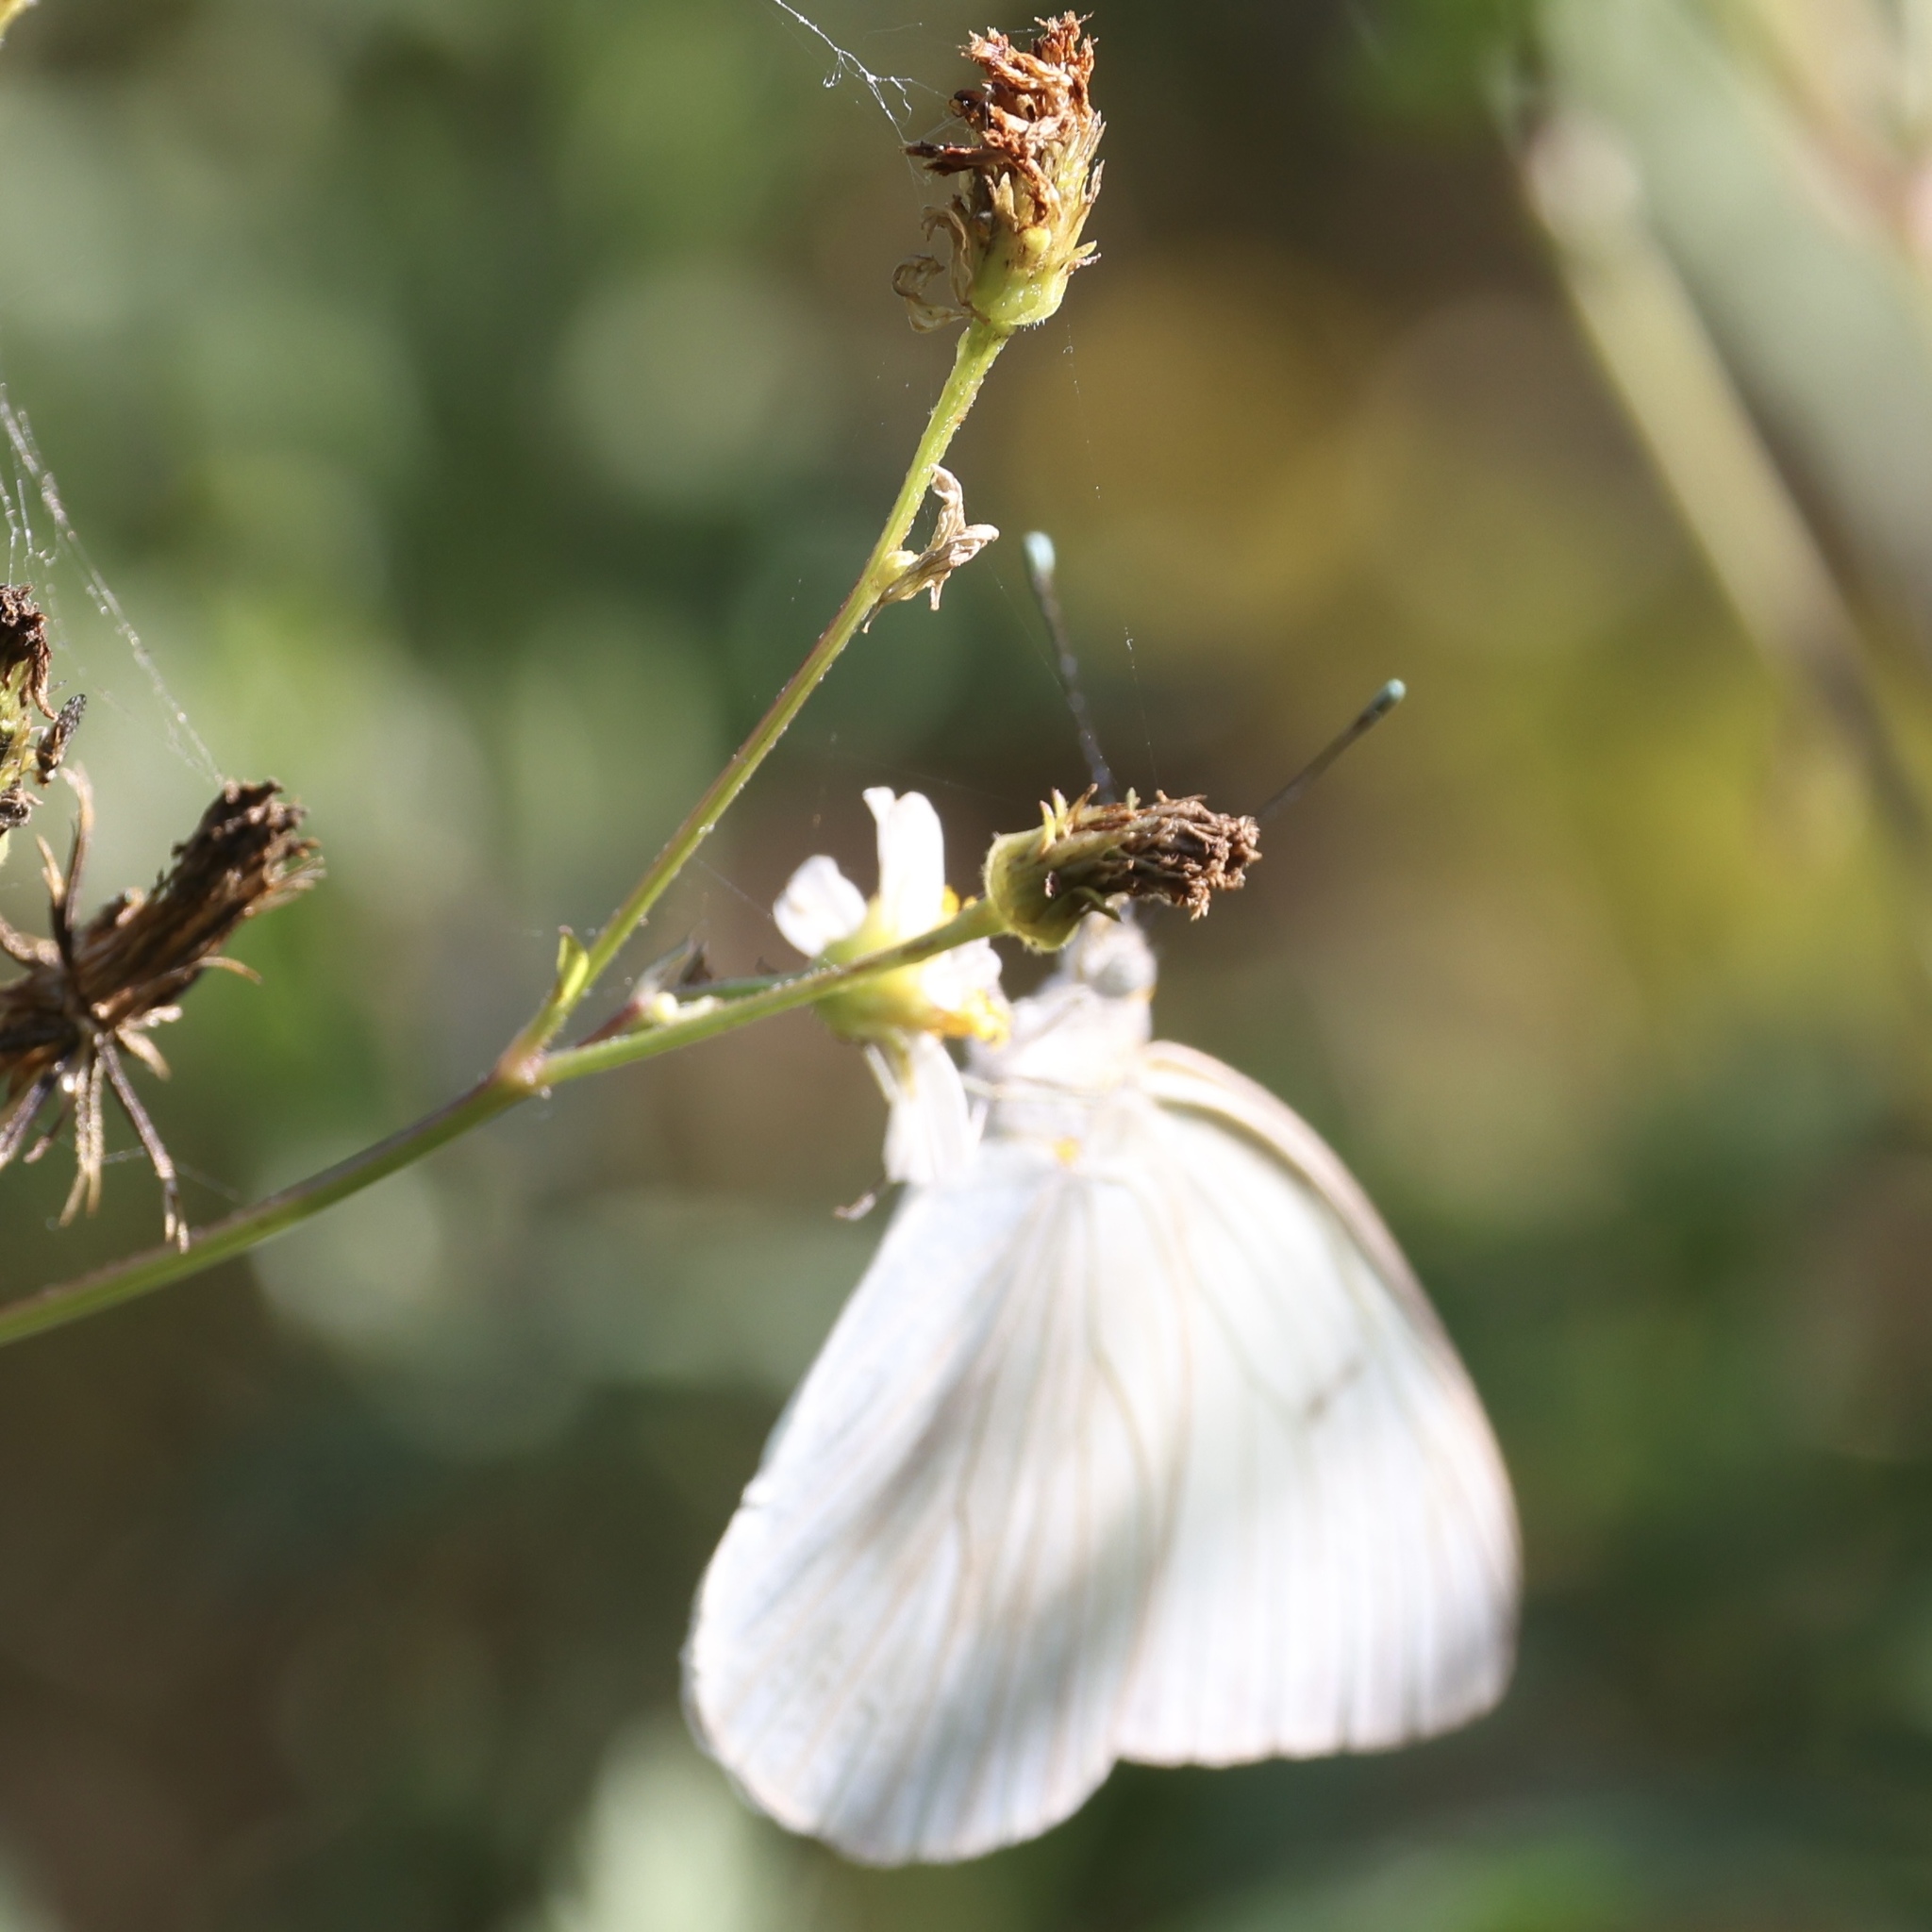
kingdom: Animalia
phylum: Arthropoda
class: Insecta
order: Lepidoptera
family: Pieridae
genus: Ascia
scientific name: Ascia monuste
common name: Great southern white
